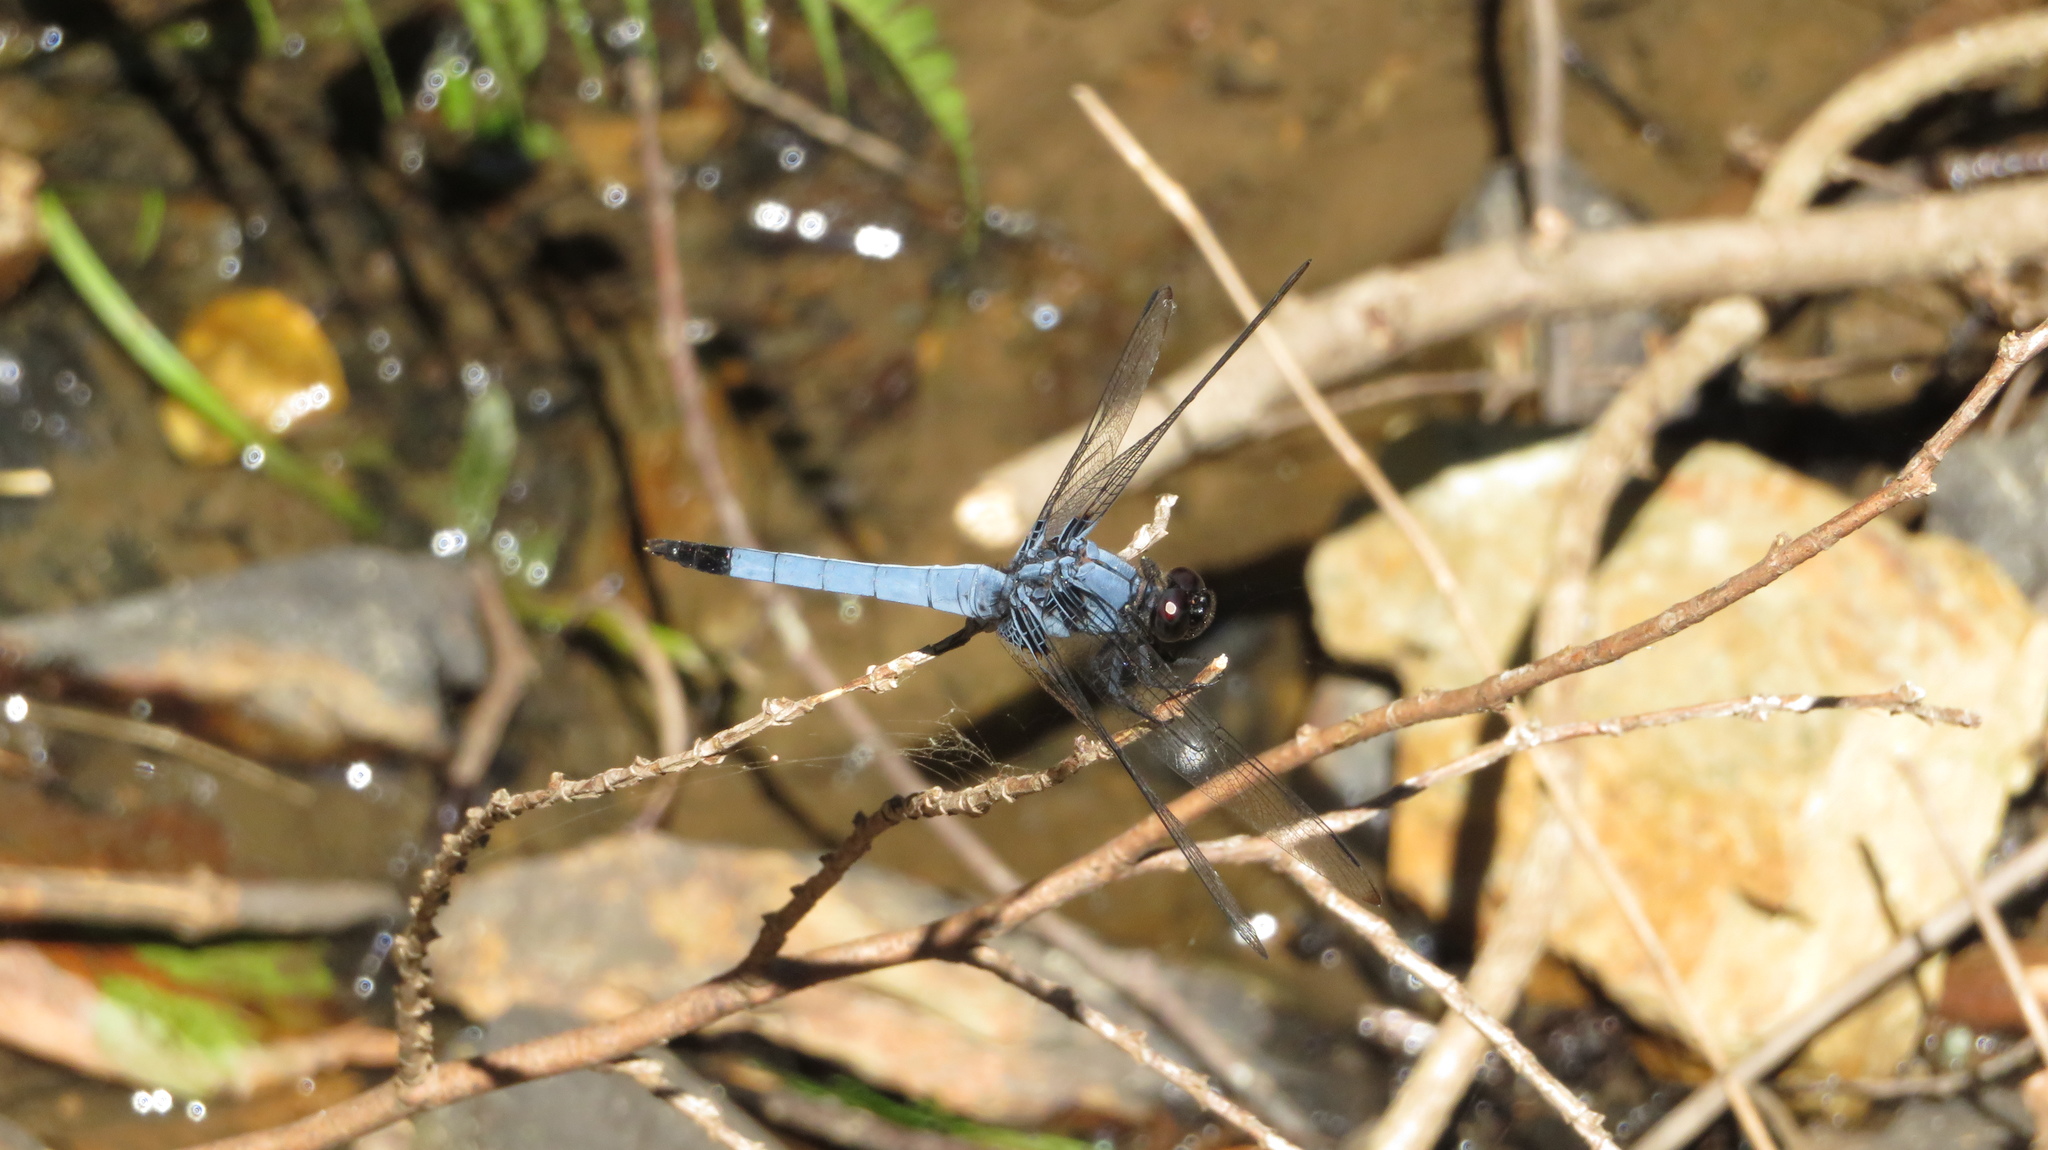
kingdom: Animalia
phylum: Arthropoda
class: Insecta
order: Odonata
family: Libellulidae
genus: Orthetrum
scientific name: Orthetrum melania
